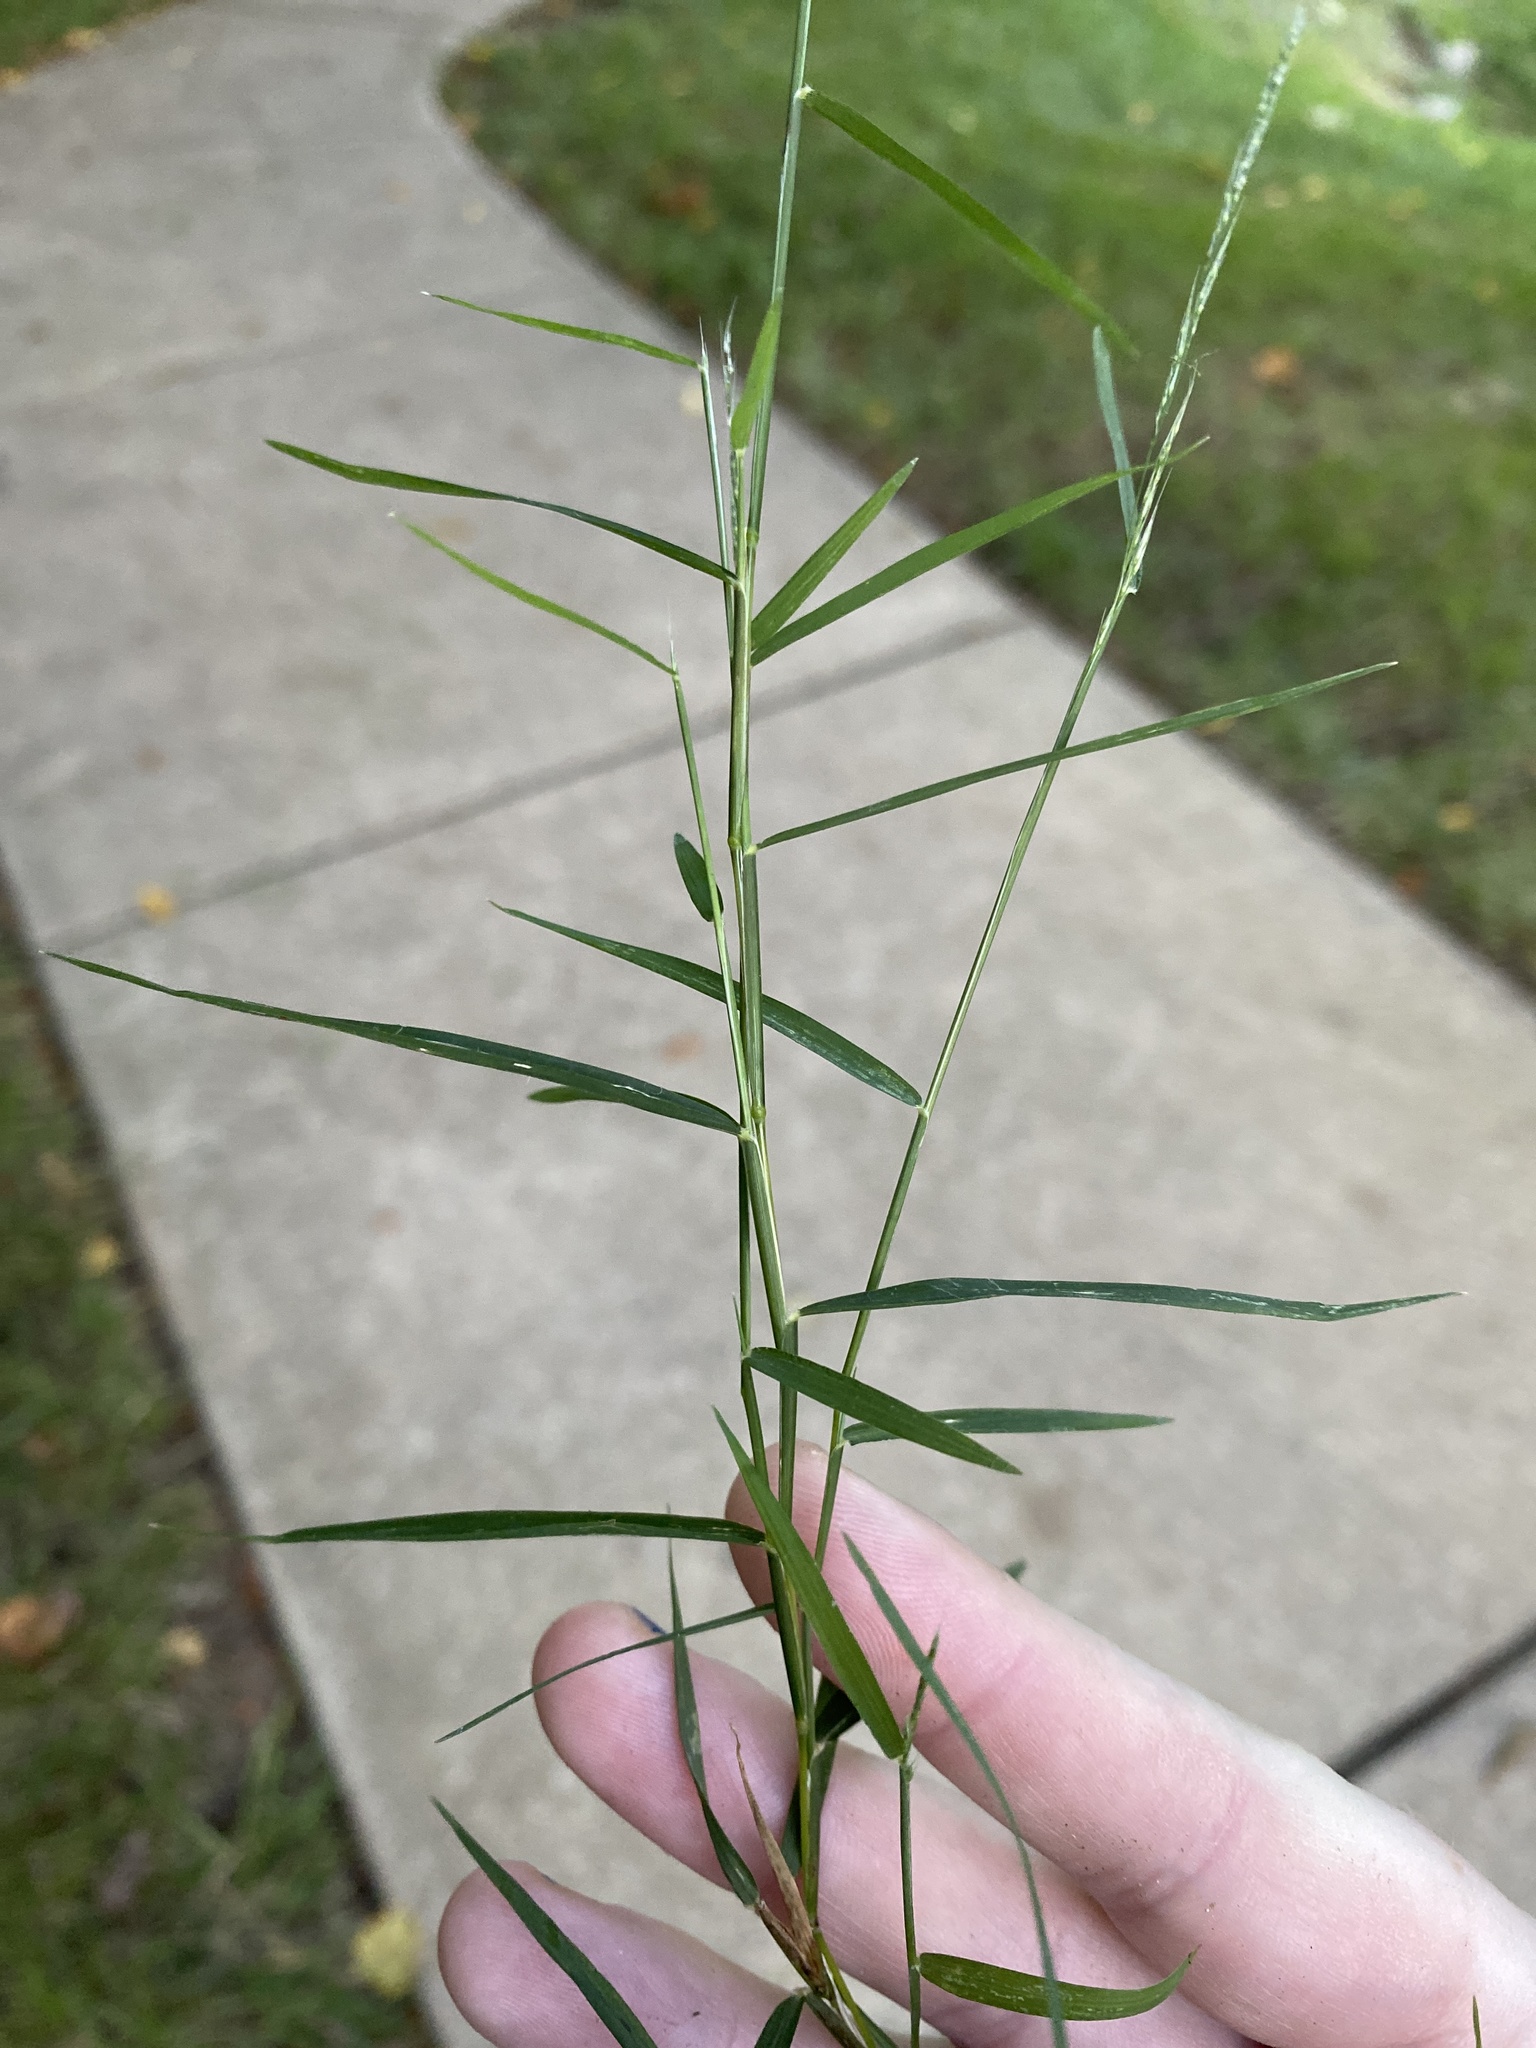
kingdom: Plantae
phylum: Tracheophyta
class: Liliopsida
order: Poales
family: Poaceae
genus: Muhlenbergia
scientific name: Muhlenbergia schreberi
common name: Nimblewill
